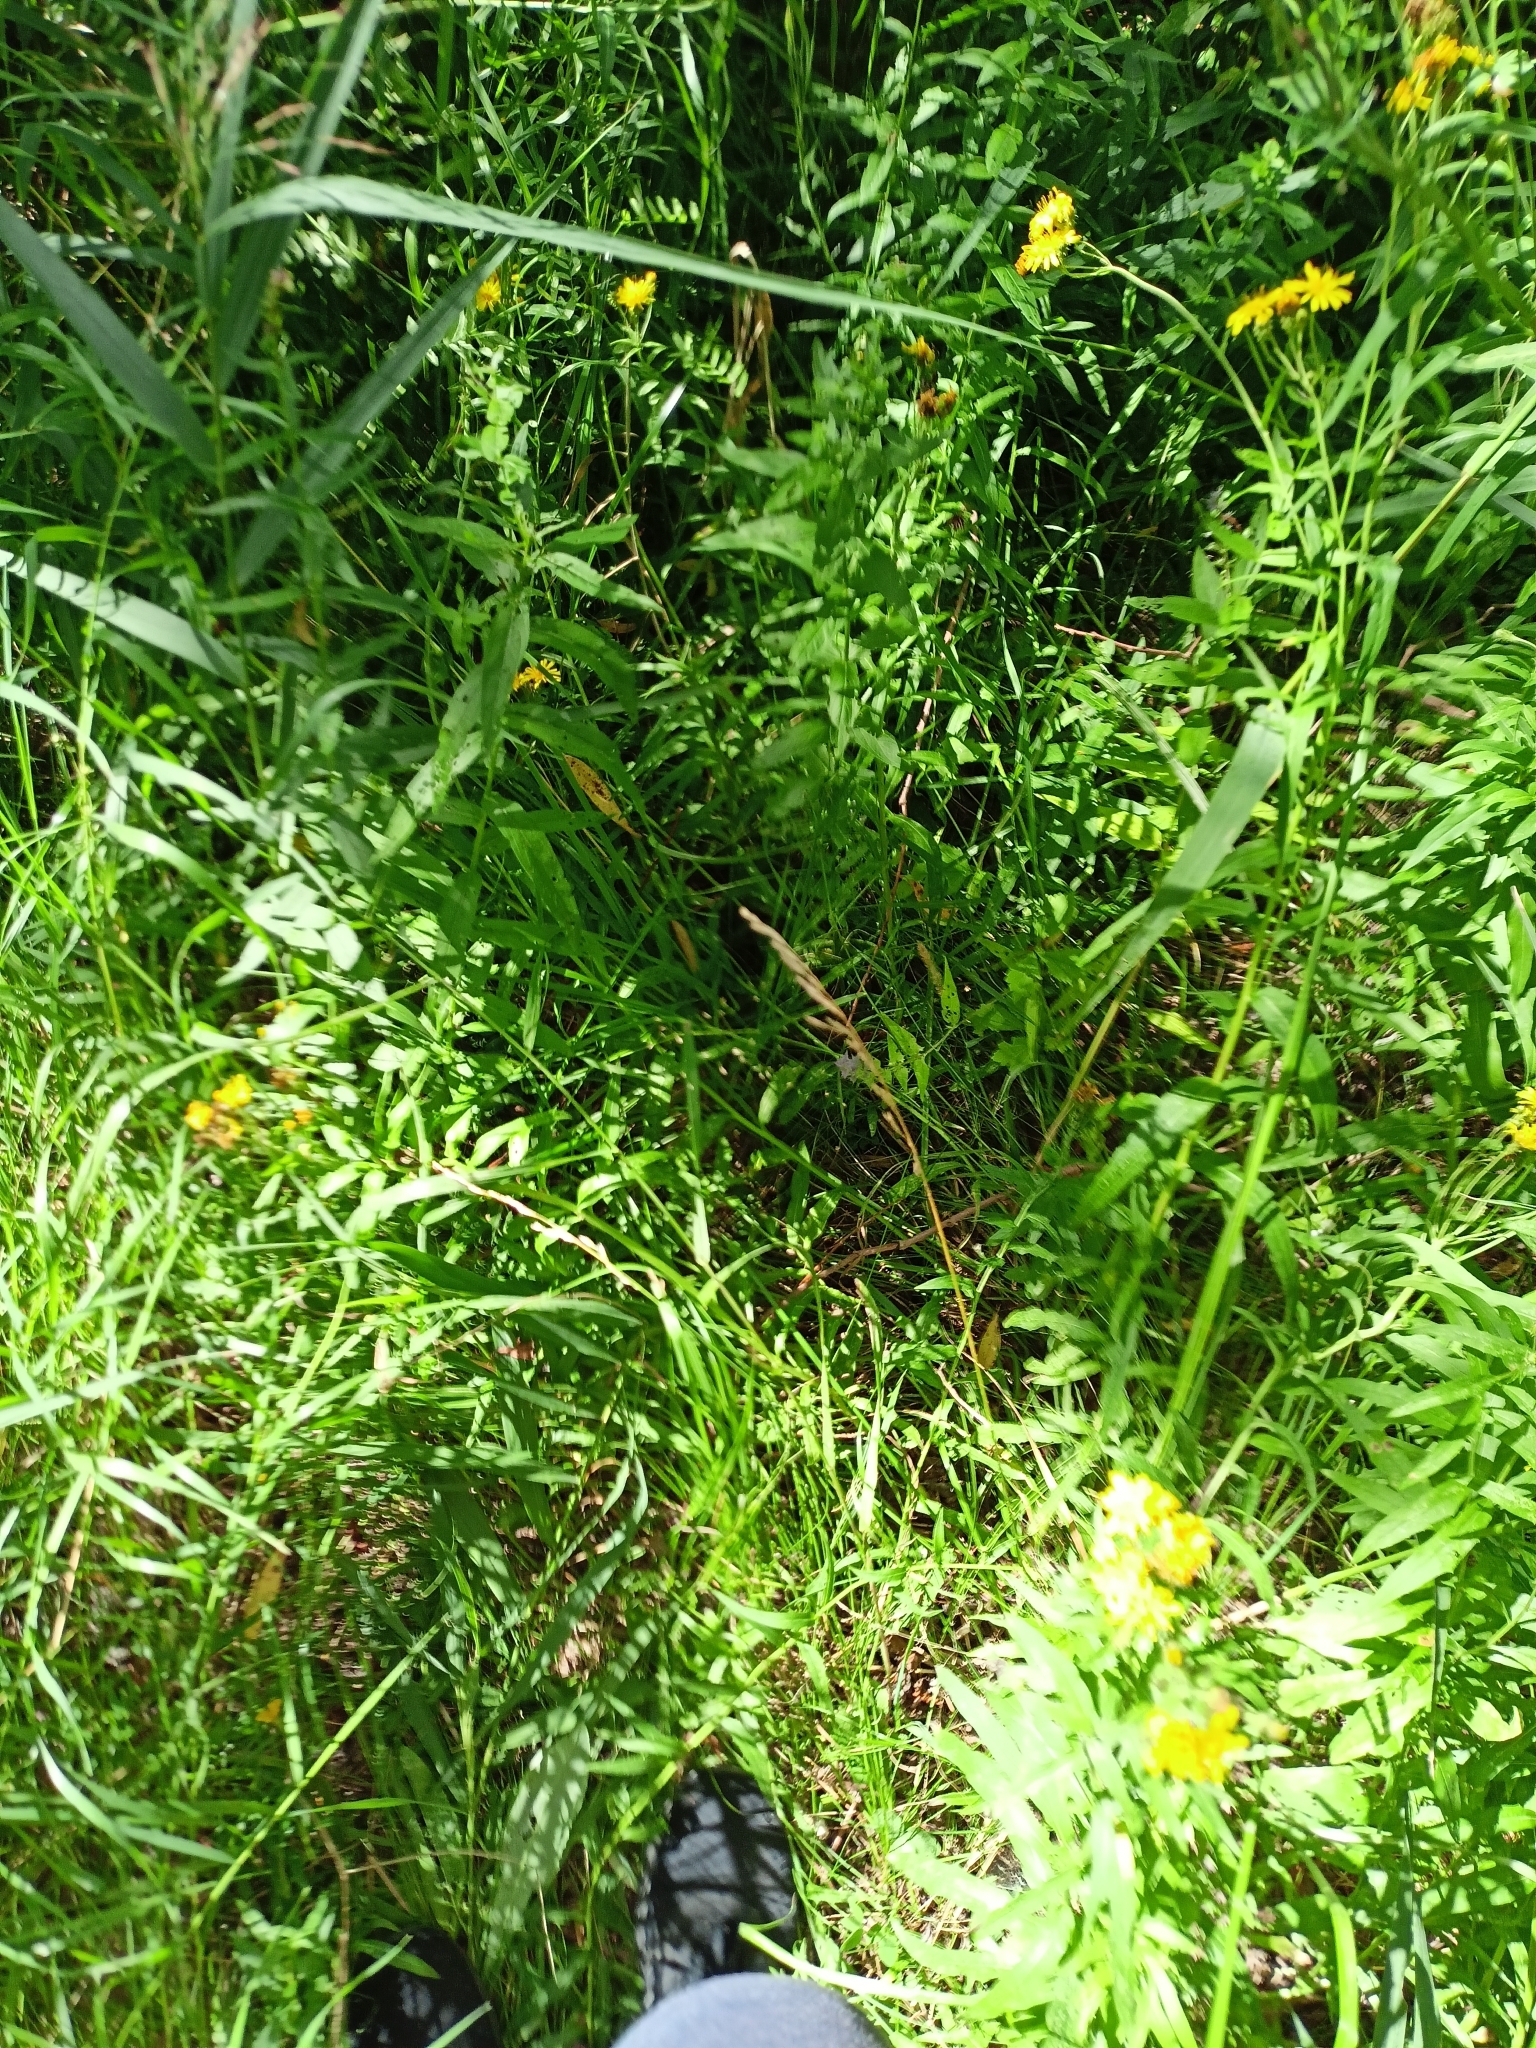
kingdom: Plantae
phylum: Tracheophyta
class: Magnoliopsida
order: Asterales
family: Asteraceae
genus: Hieracium
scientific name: Hieracium umbellatum
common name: Northern hawkweed
